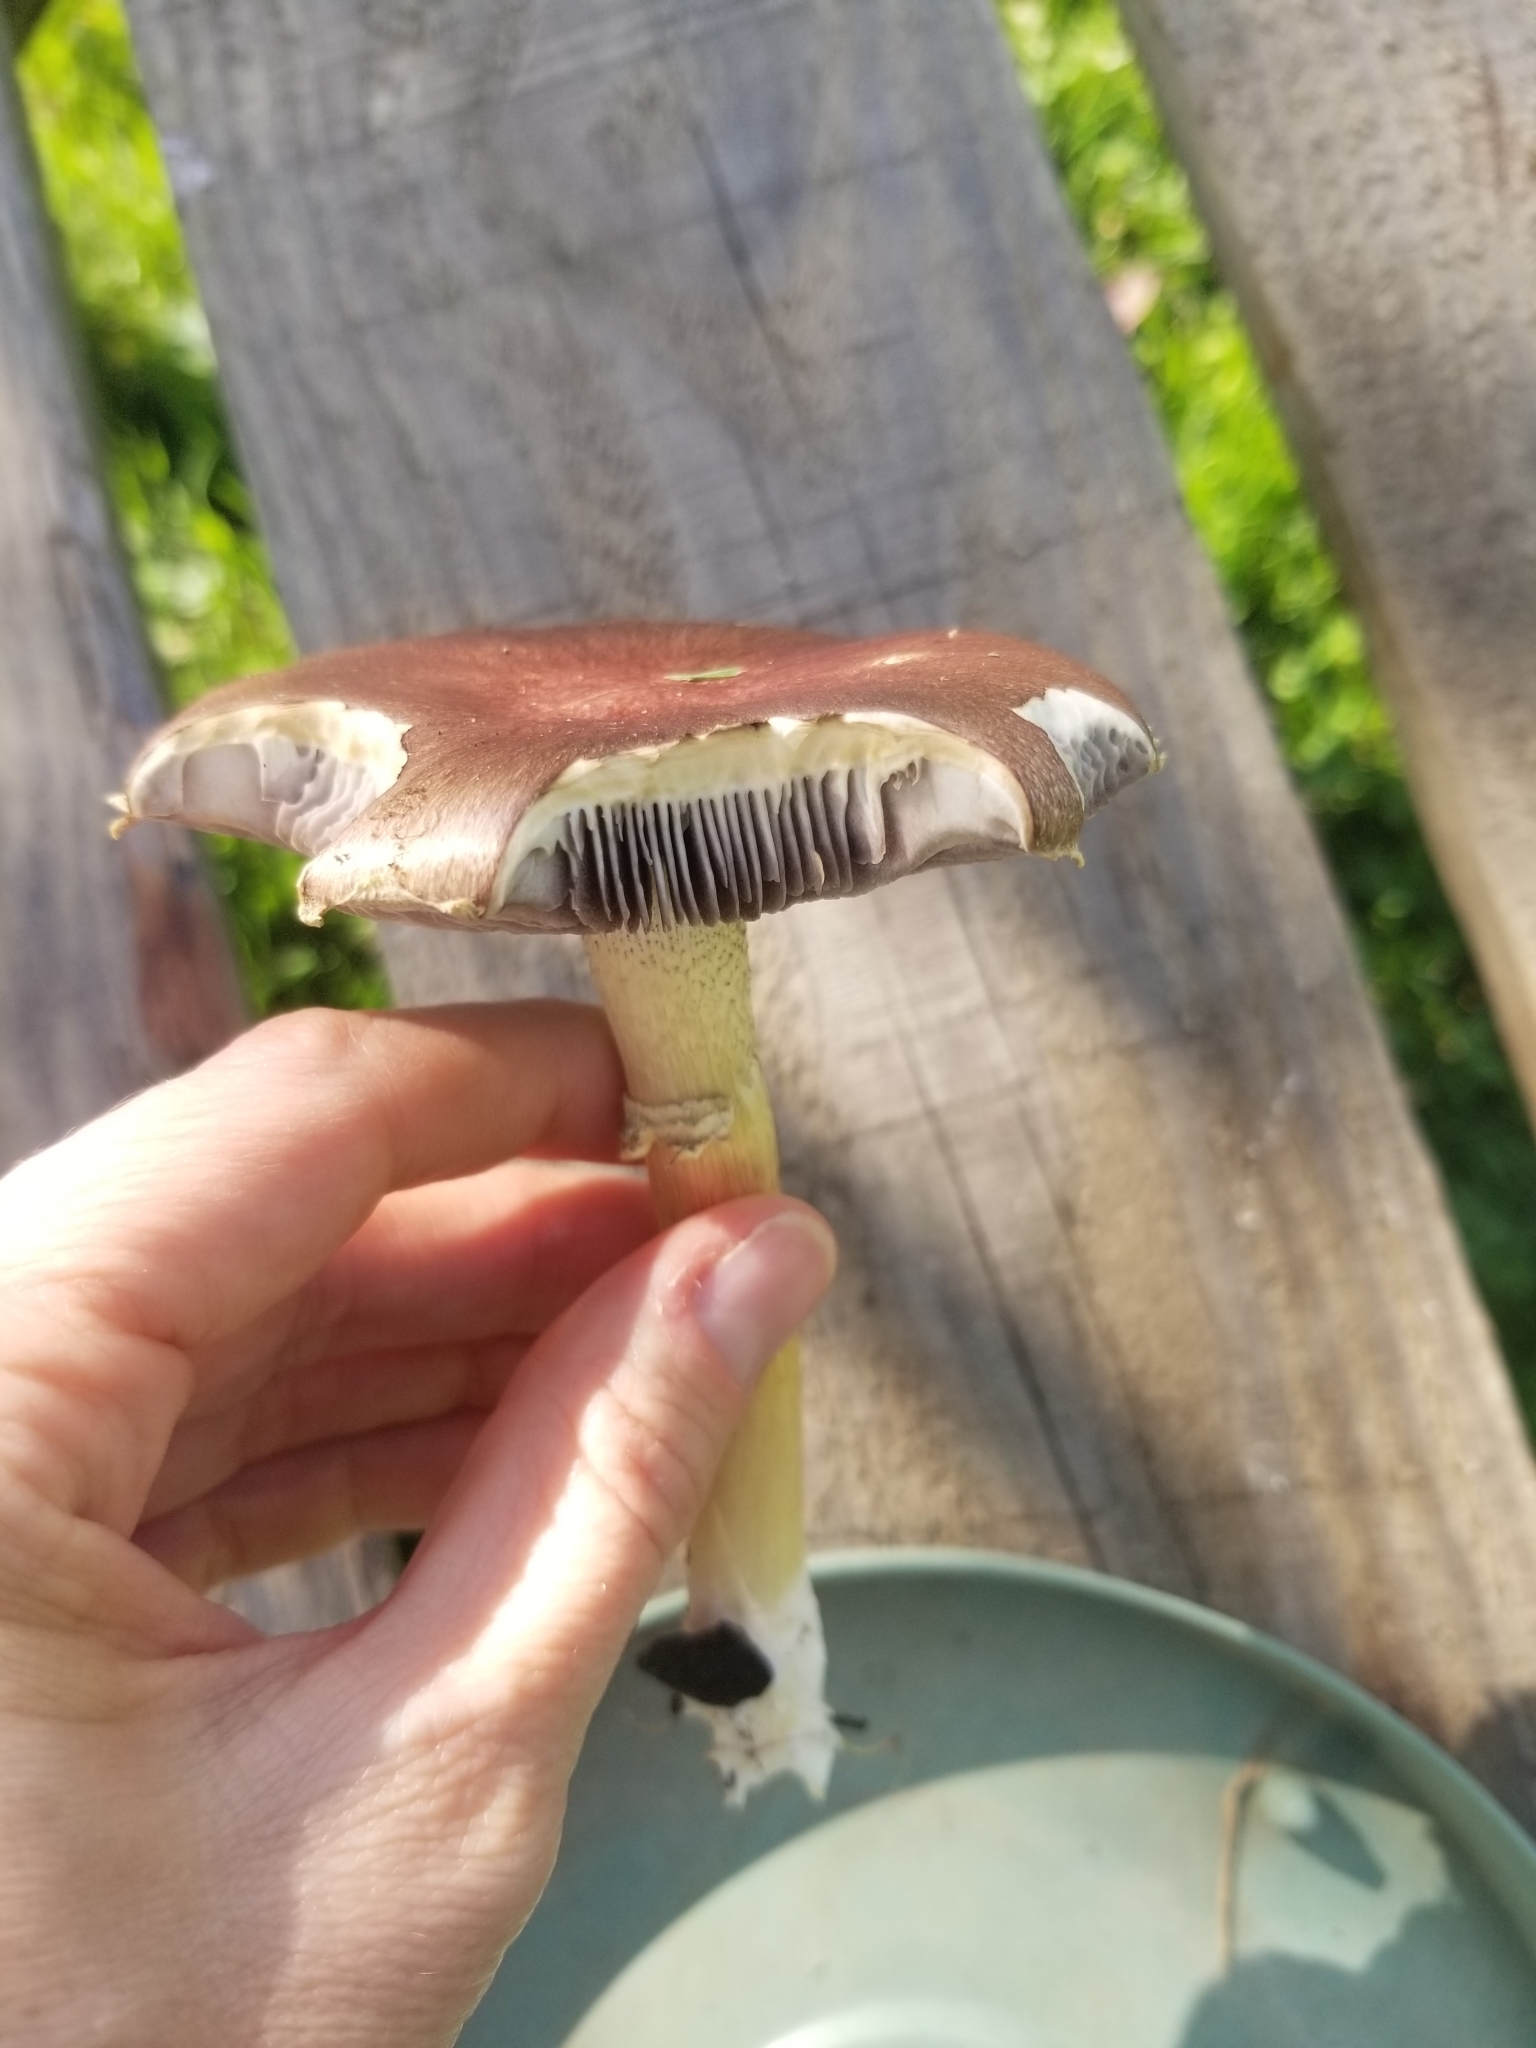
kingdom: Fungi
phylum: Basidiomycota
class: Agaricomycetes
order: Agaricales
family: Strophariaceae
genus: Stropharia
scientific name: Stropharia rugosoannulata
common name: Wine roundhead
